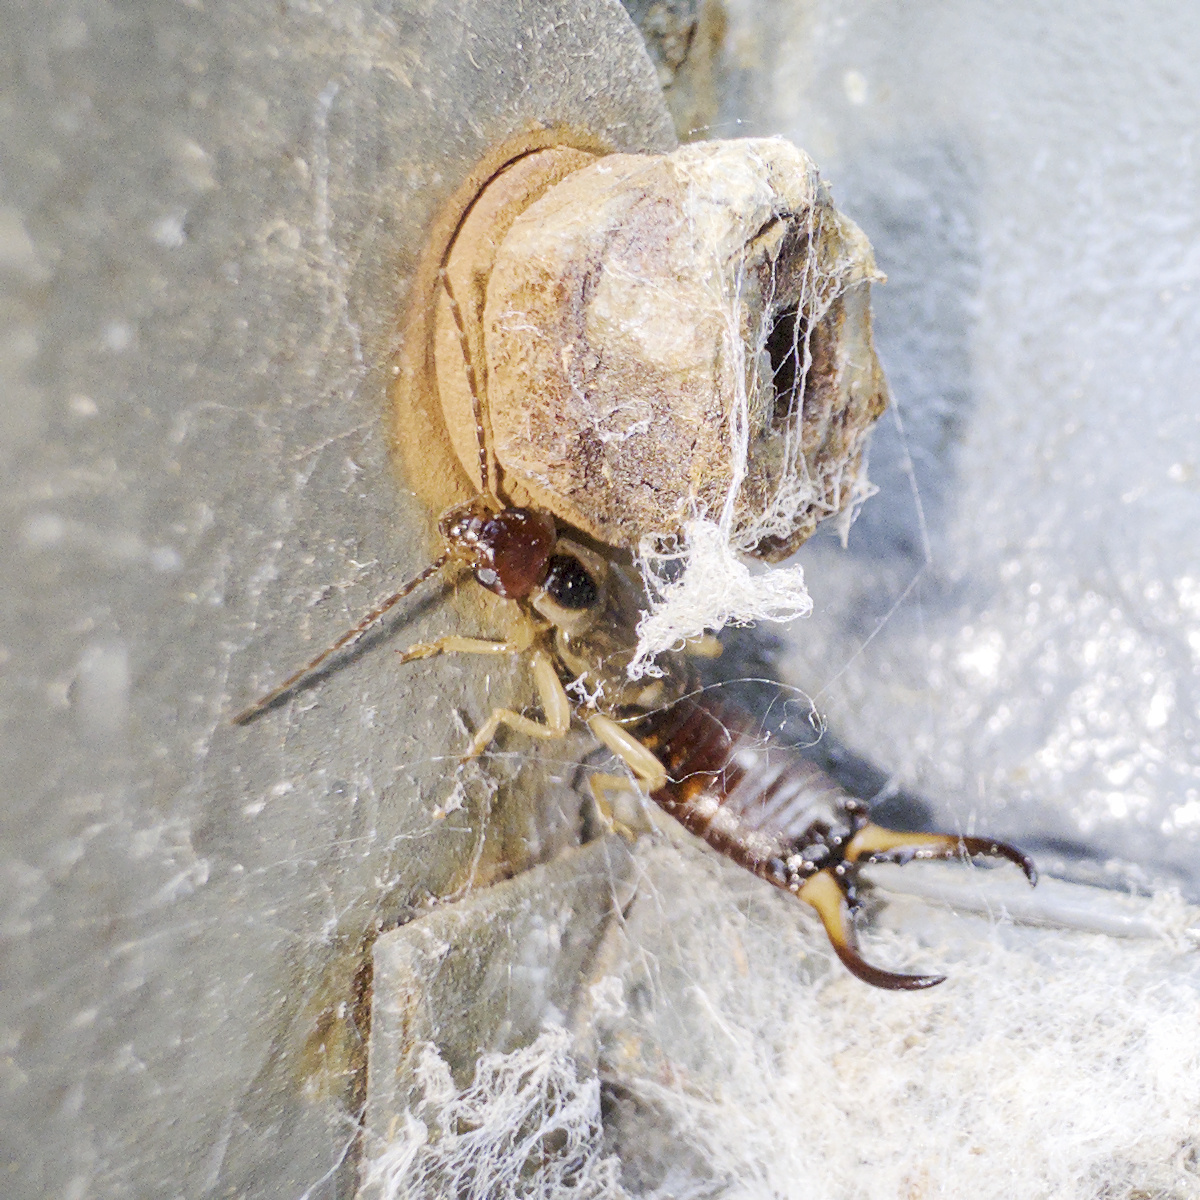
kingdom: Animalia
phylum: Arthropoda
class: Insecta
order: Dermaptera
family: Forficulidae
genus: Forficula
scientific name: Forficula dentata
